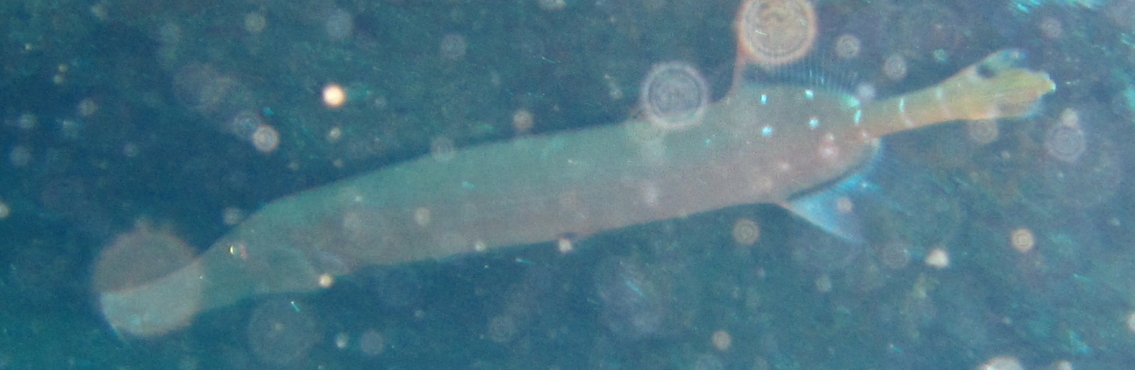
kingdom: Animalia
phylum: Chordata
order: Syngnathiformes
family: Aulostomidae
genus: Aulostomus
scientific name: Aulostomus chinensis
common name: Chinese trumpetfish
